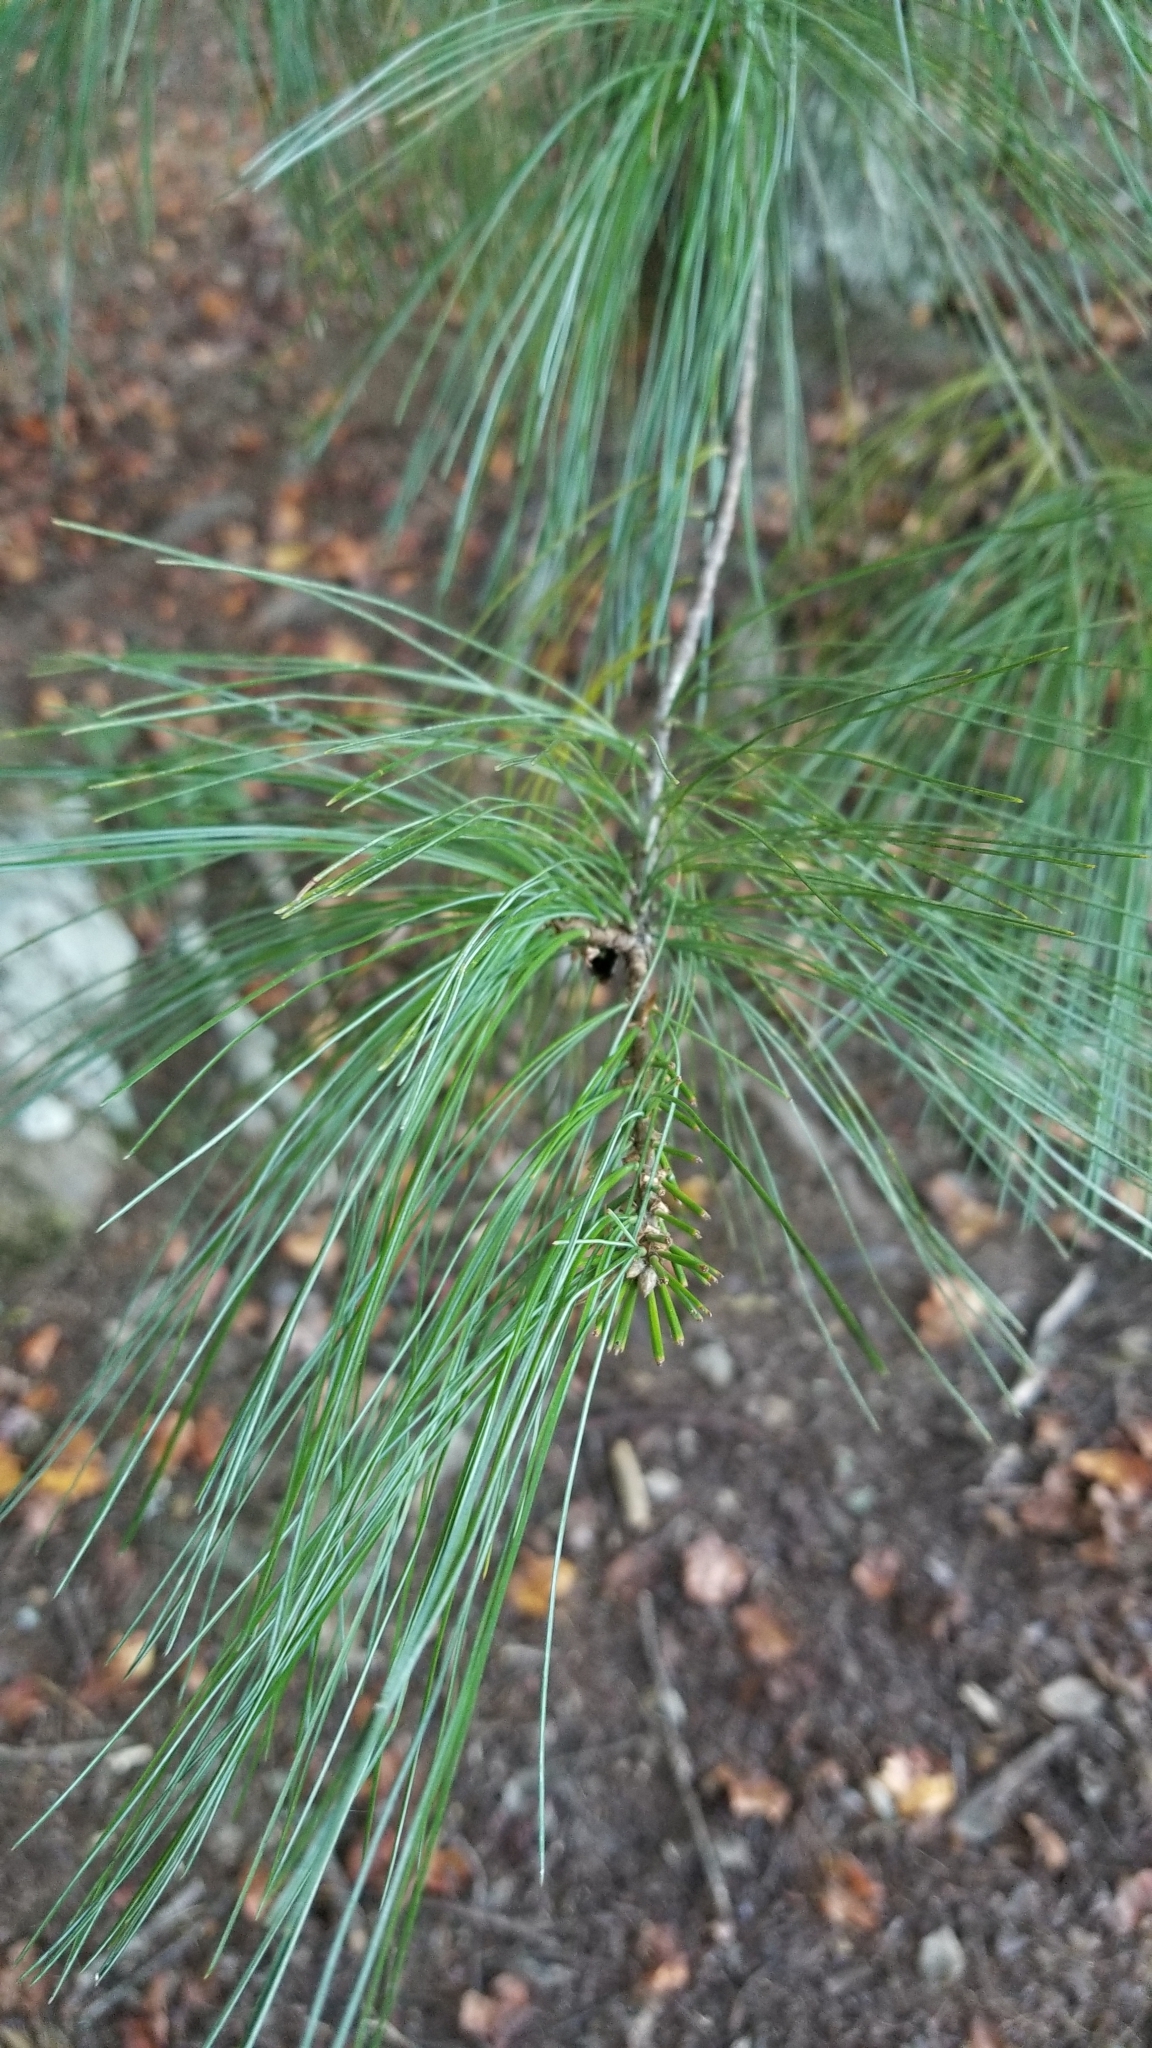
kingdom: Plantae
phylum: Tracheophyta
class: Pinopsida
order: Pinales
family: Pinaceae
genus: Pinus
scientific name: Pinus strobus
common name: Weymouth pine
